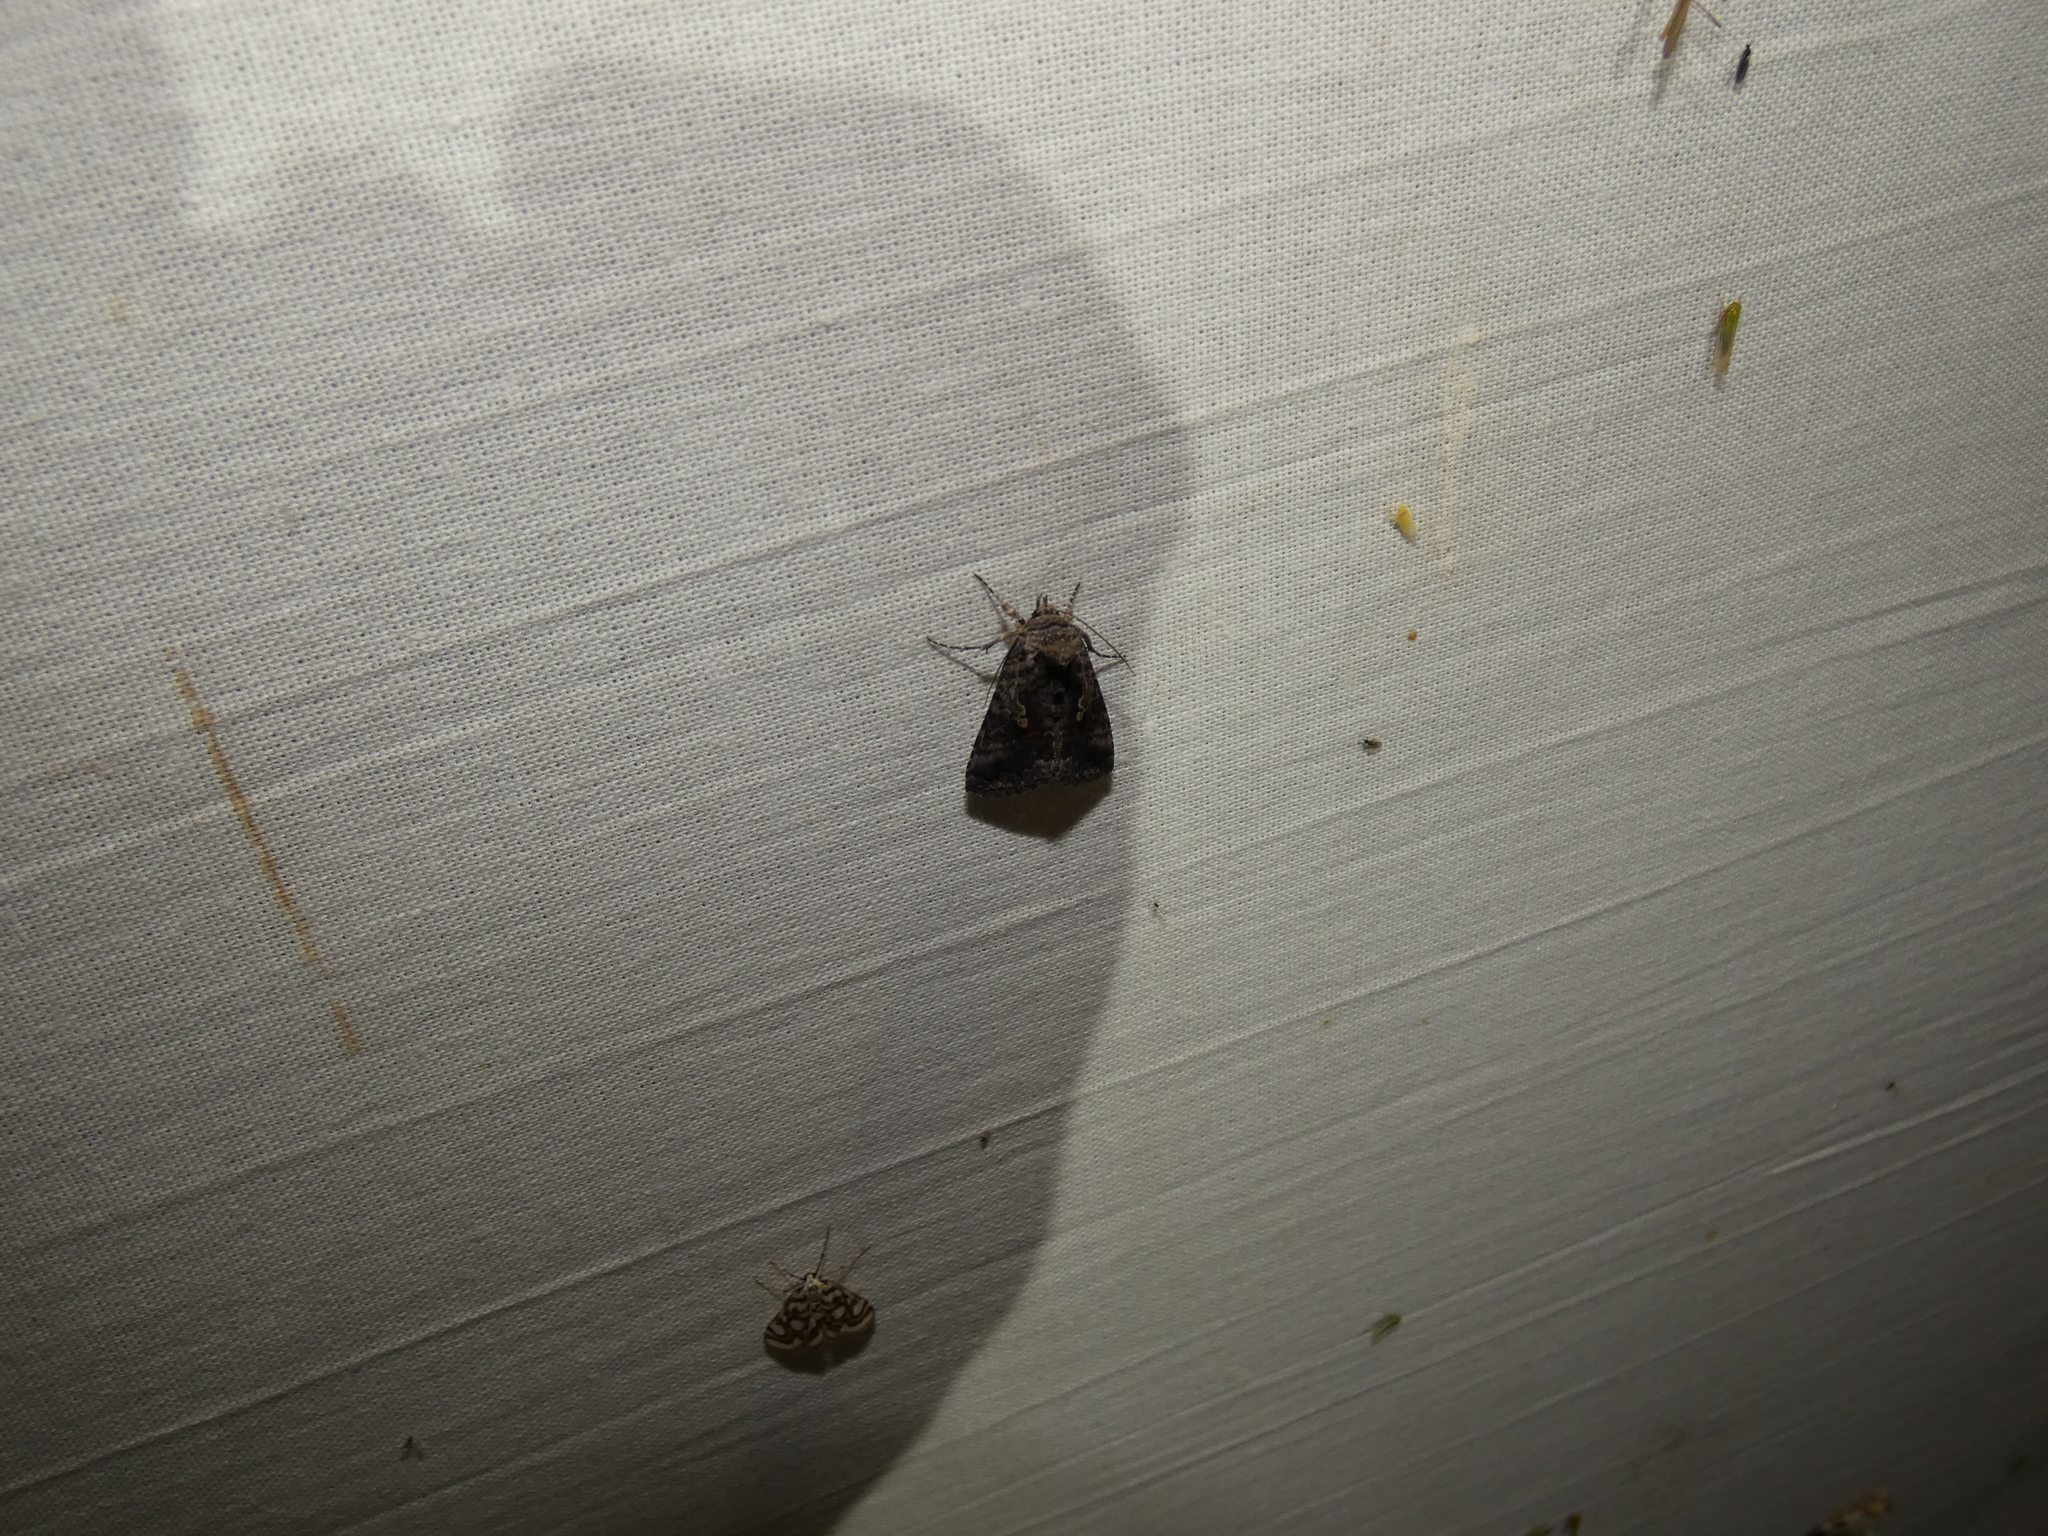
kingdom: Animalia
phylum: Arthropoda
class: Insecta
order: Lepidoptera
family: Noctuidae
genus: Syngrapha
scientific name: Syngrapha interrogationis
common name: Scarce silver y
